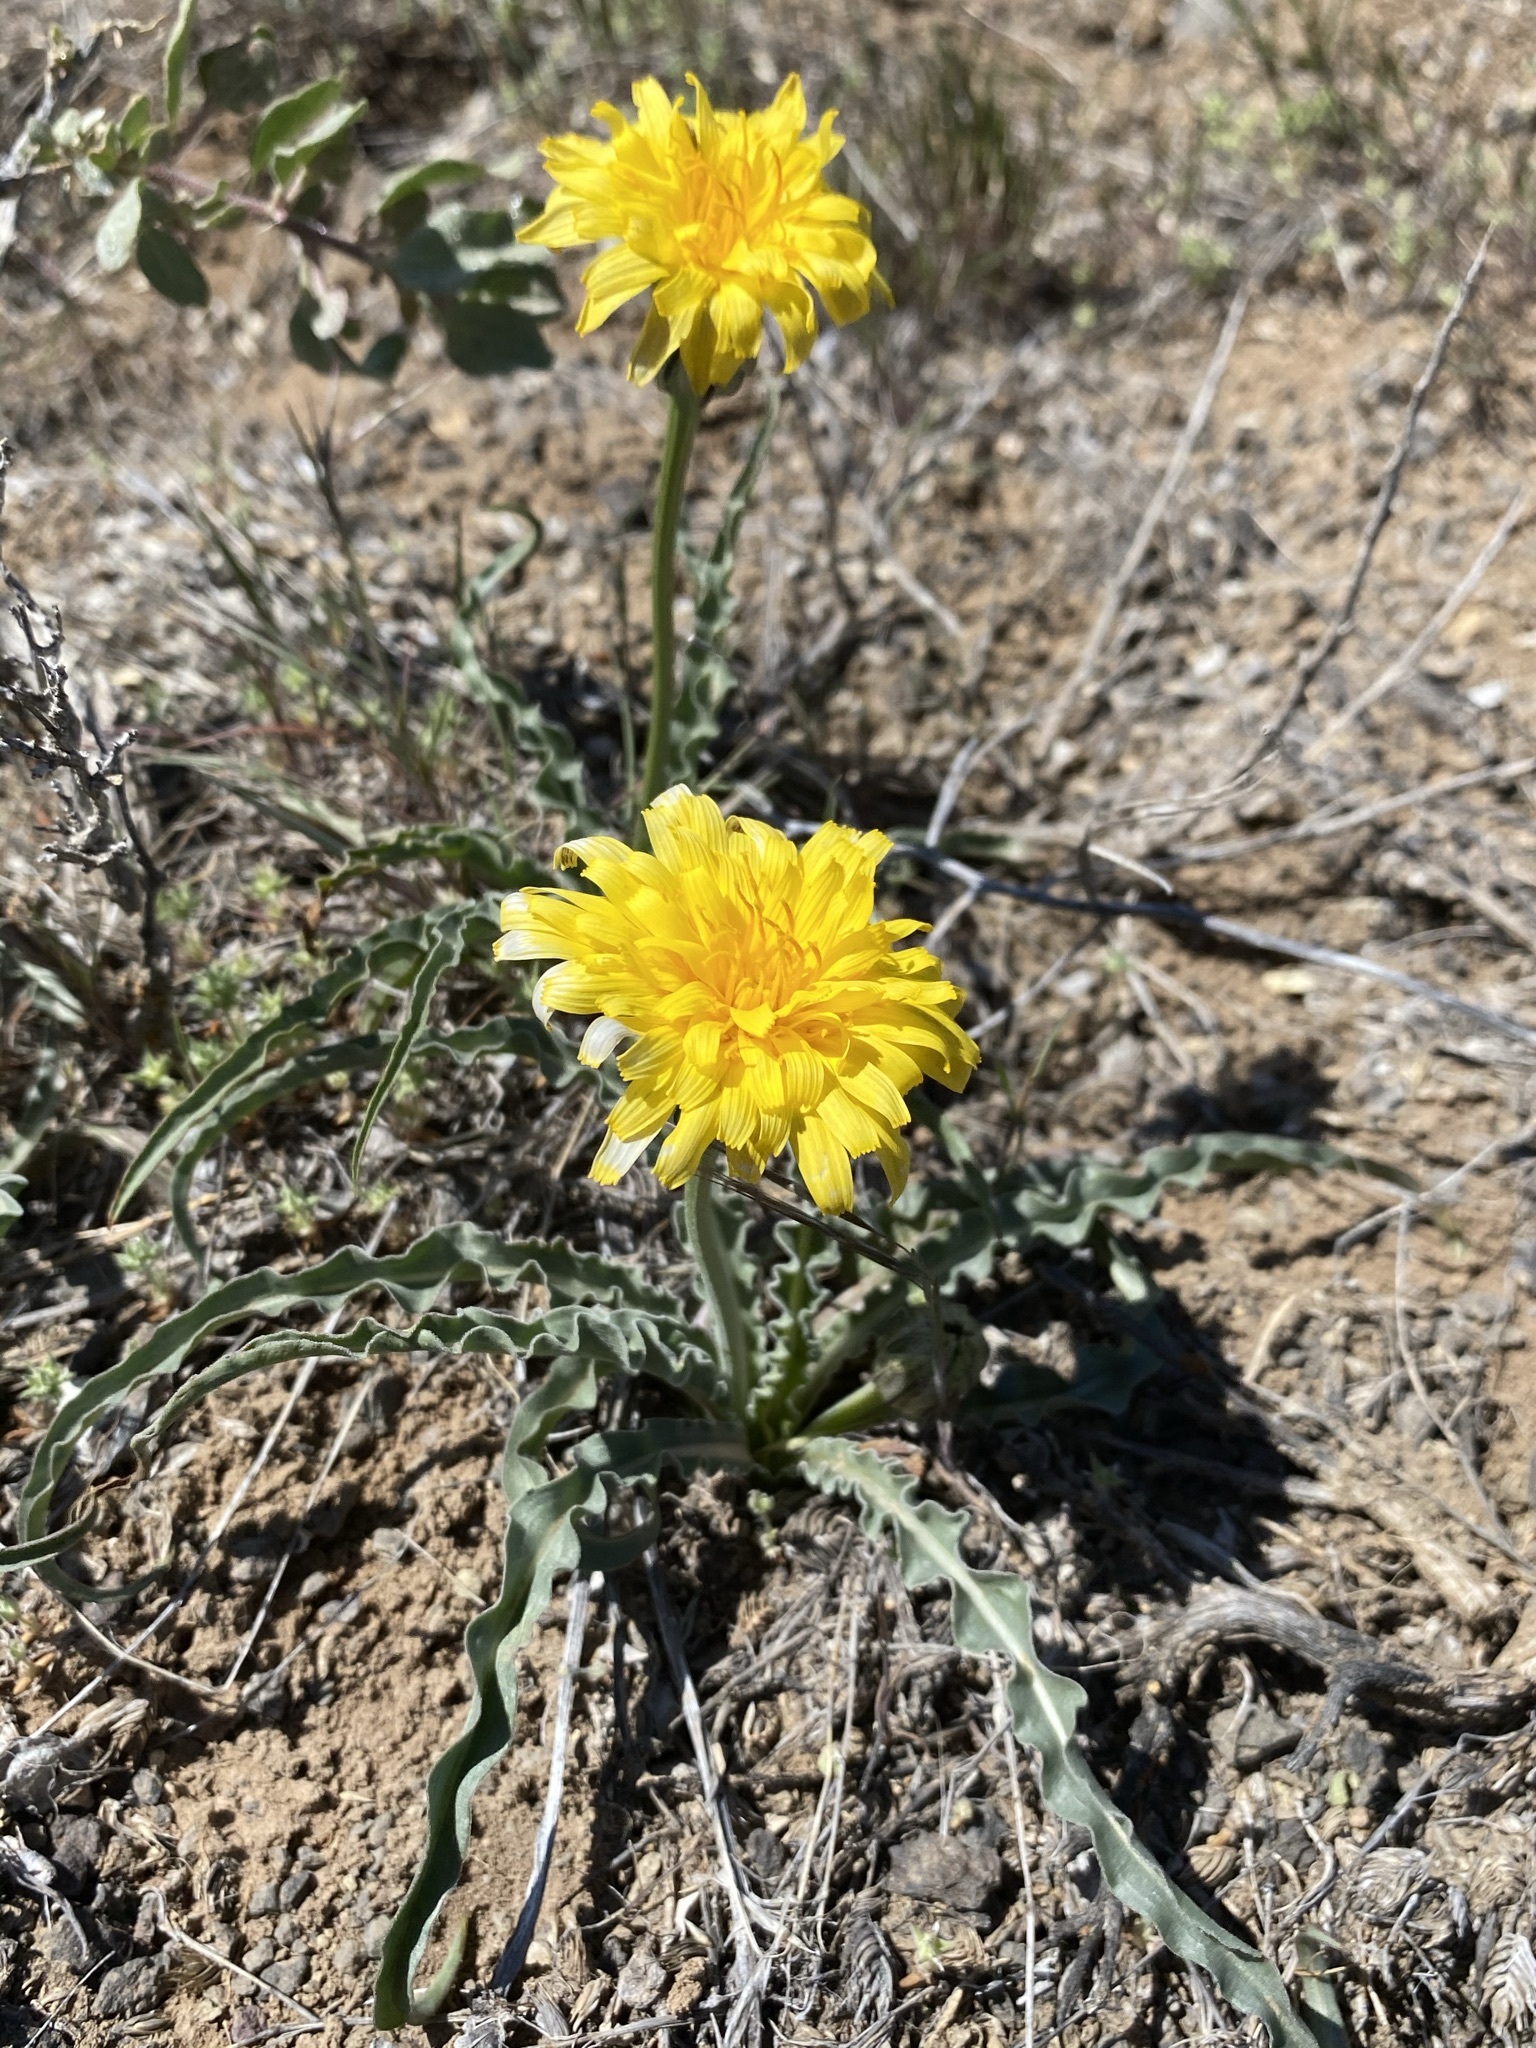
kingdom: Plantae
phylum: Tracheophyta
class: Magnoliopsida
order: Asterales
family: Asteraceae
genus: Microseris
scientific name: Microseris troximoides
